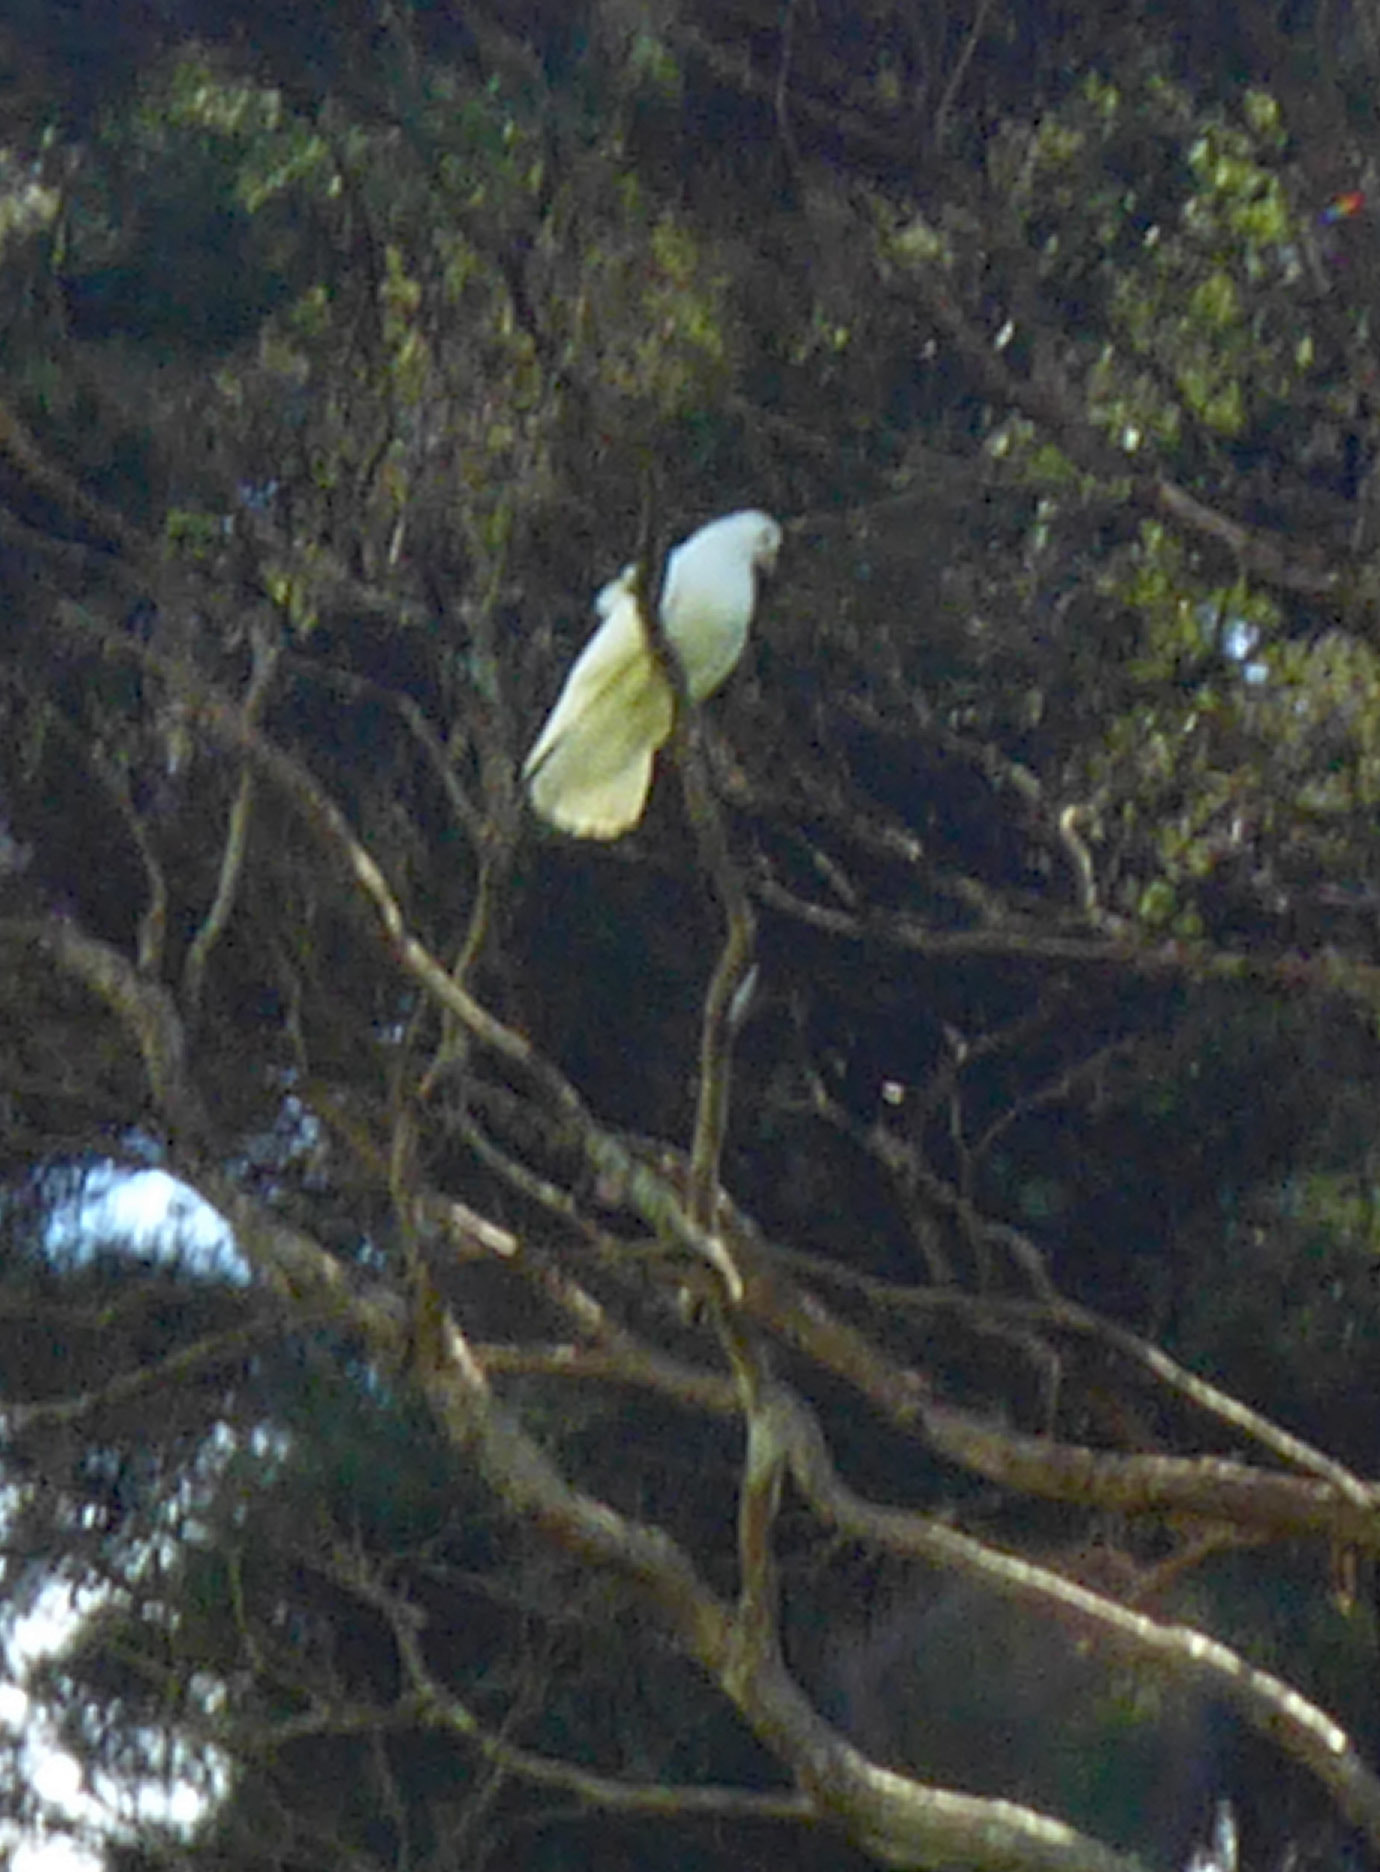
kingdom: Animalia
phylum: Chordata
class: Aves
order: Columbiformes
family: Columbidae
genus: Columba
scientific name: Columba livia
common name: Rock pigeon
